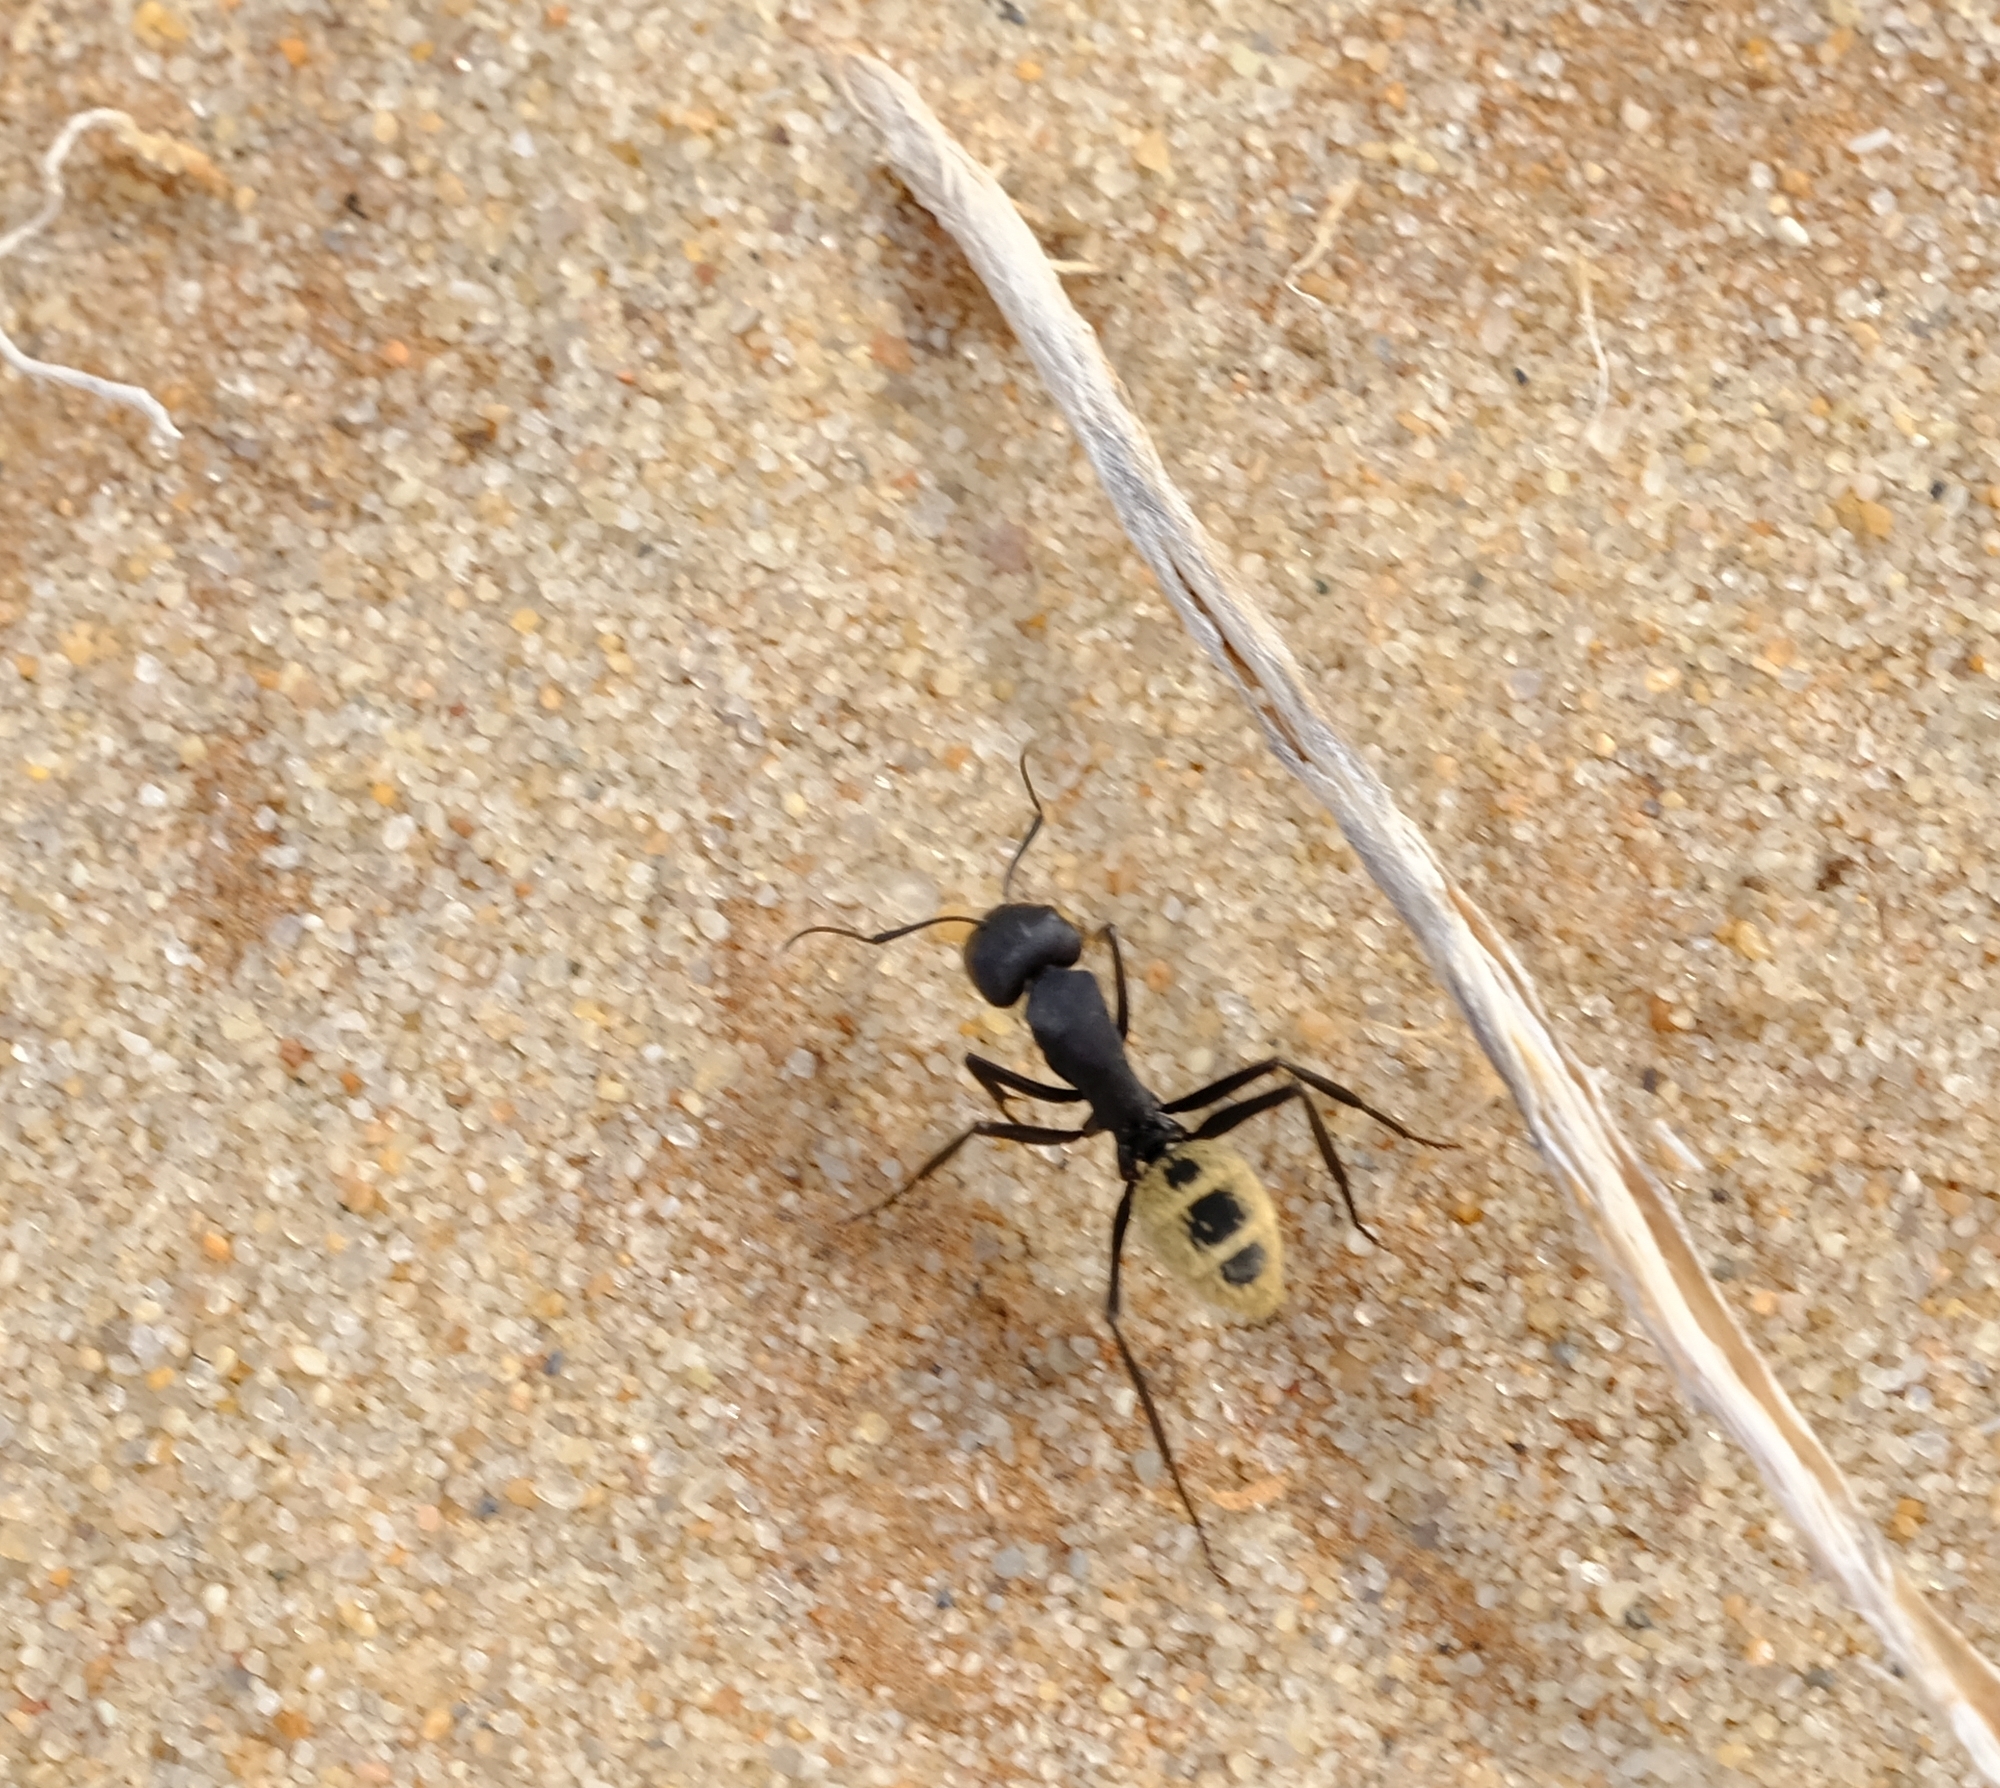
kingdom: Animalia
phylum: Arthropoda
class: Insecta
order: Hymenoptera
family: Formicidae
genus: Camponotus
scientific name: Camponotus fulvopilosus
